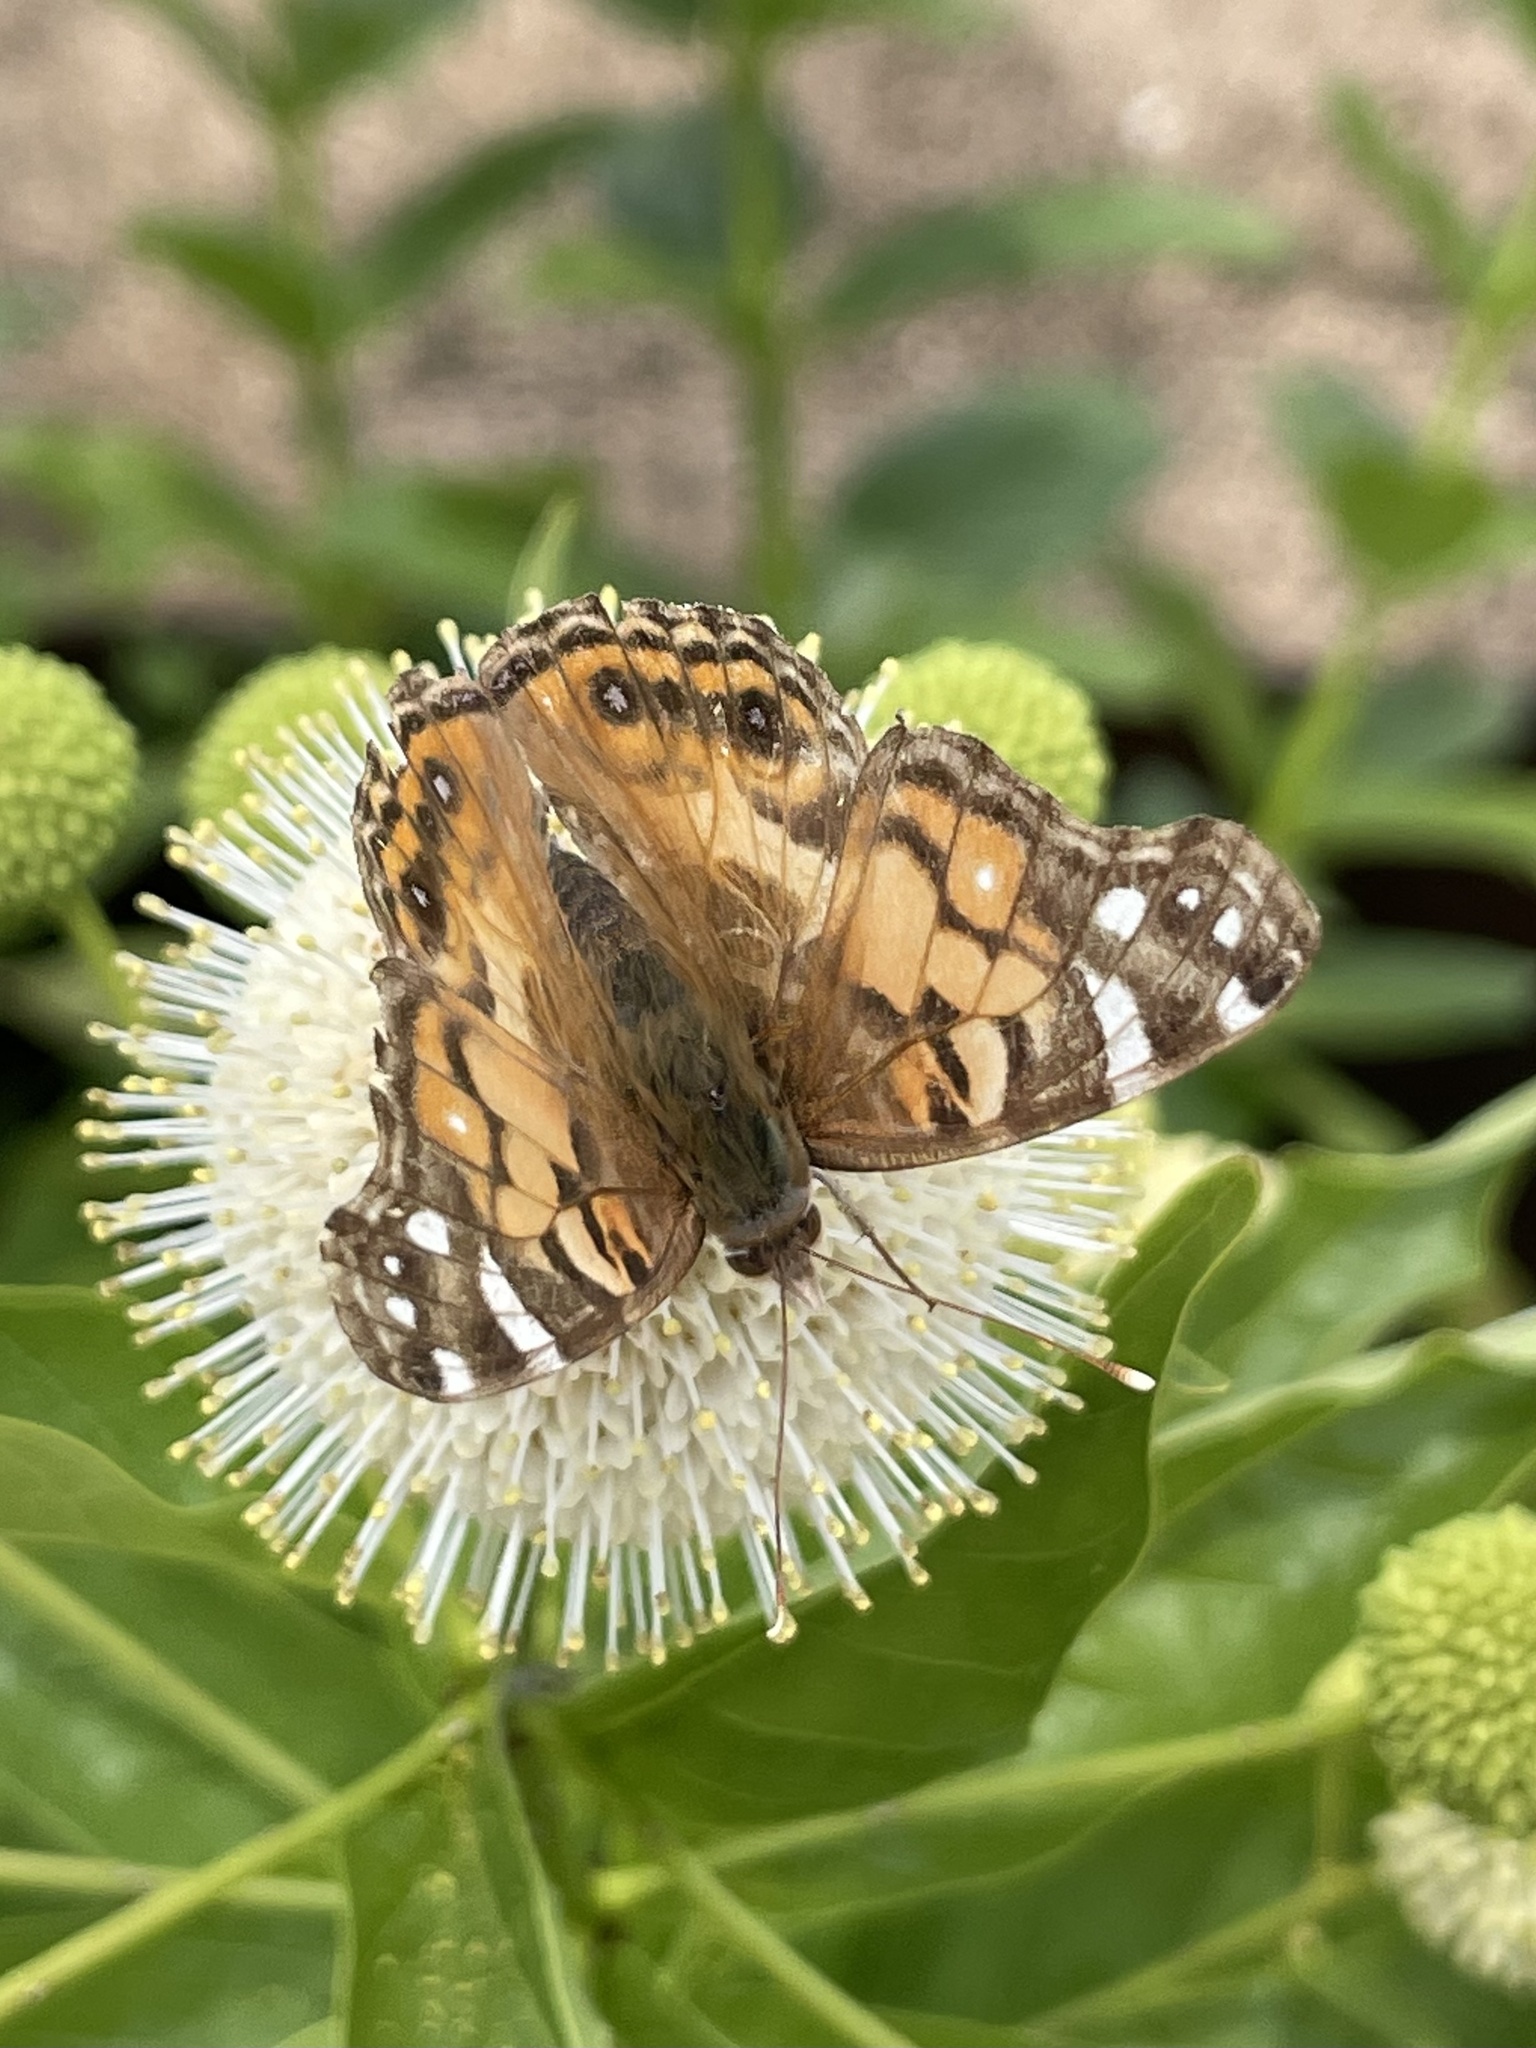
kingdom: Animalia
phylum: Arthropoda
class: Insecta
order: Lepidoptera
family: Nymphalidae
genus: Vanessa
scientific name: Vanessa virginiensis
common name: American lady
